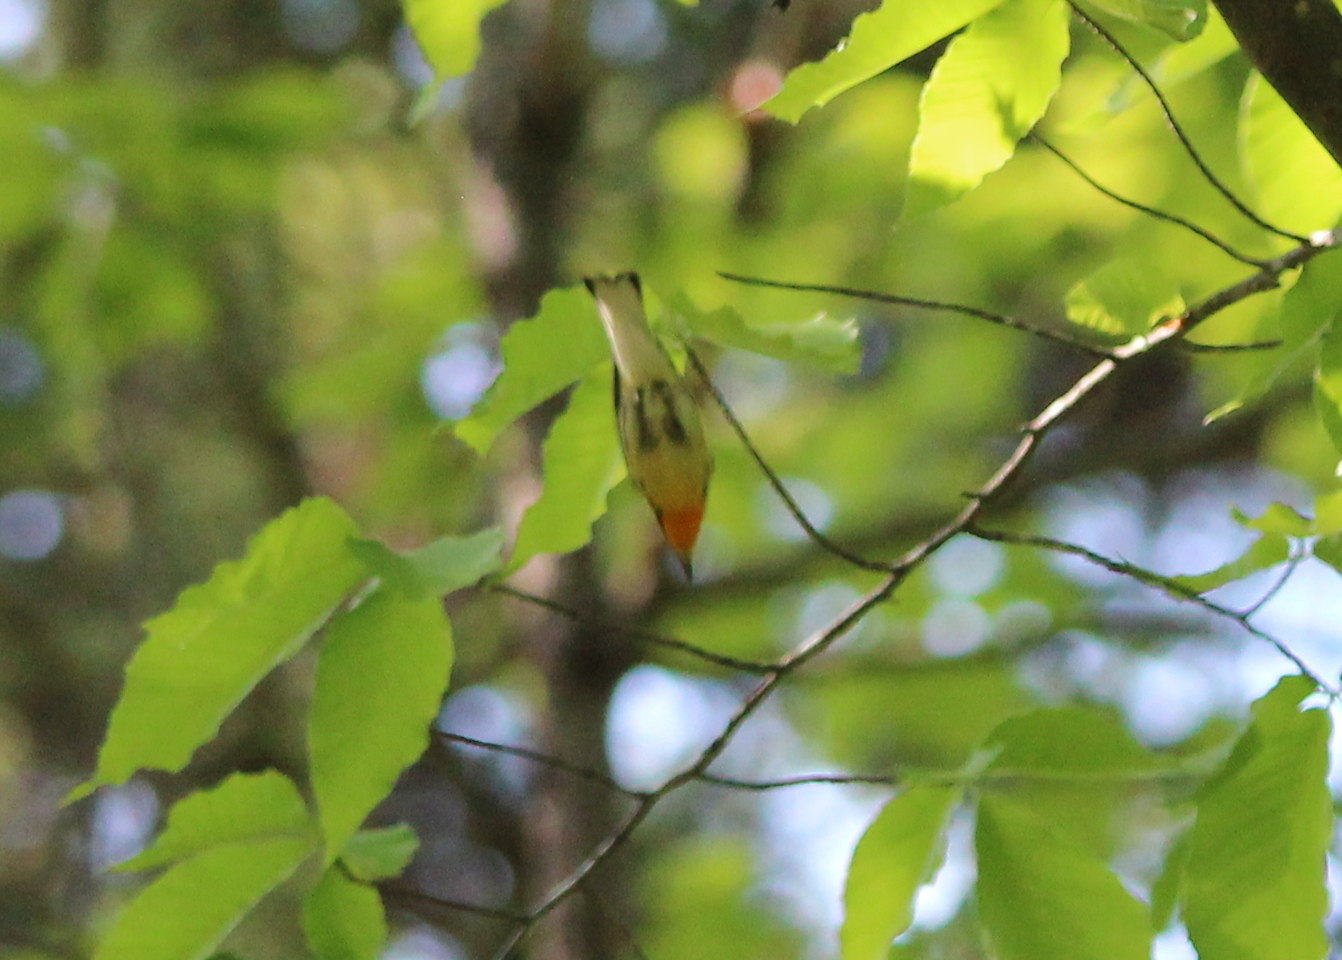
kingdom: Animalia
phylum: Chordata
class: Aves
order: Passeriformes
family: Parulidae
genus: Setophaga
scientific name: Setophaga fusca
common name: Blackburnian warbler
